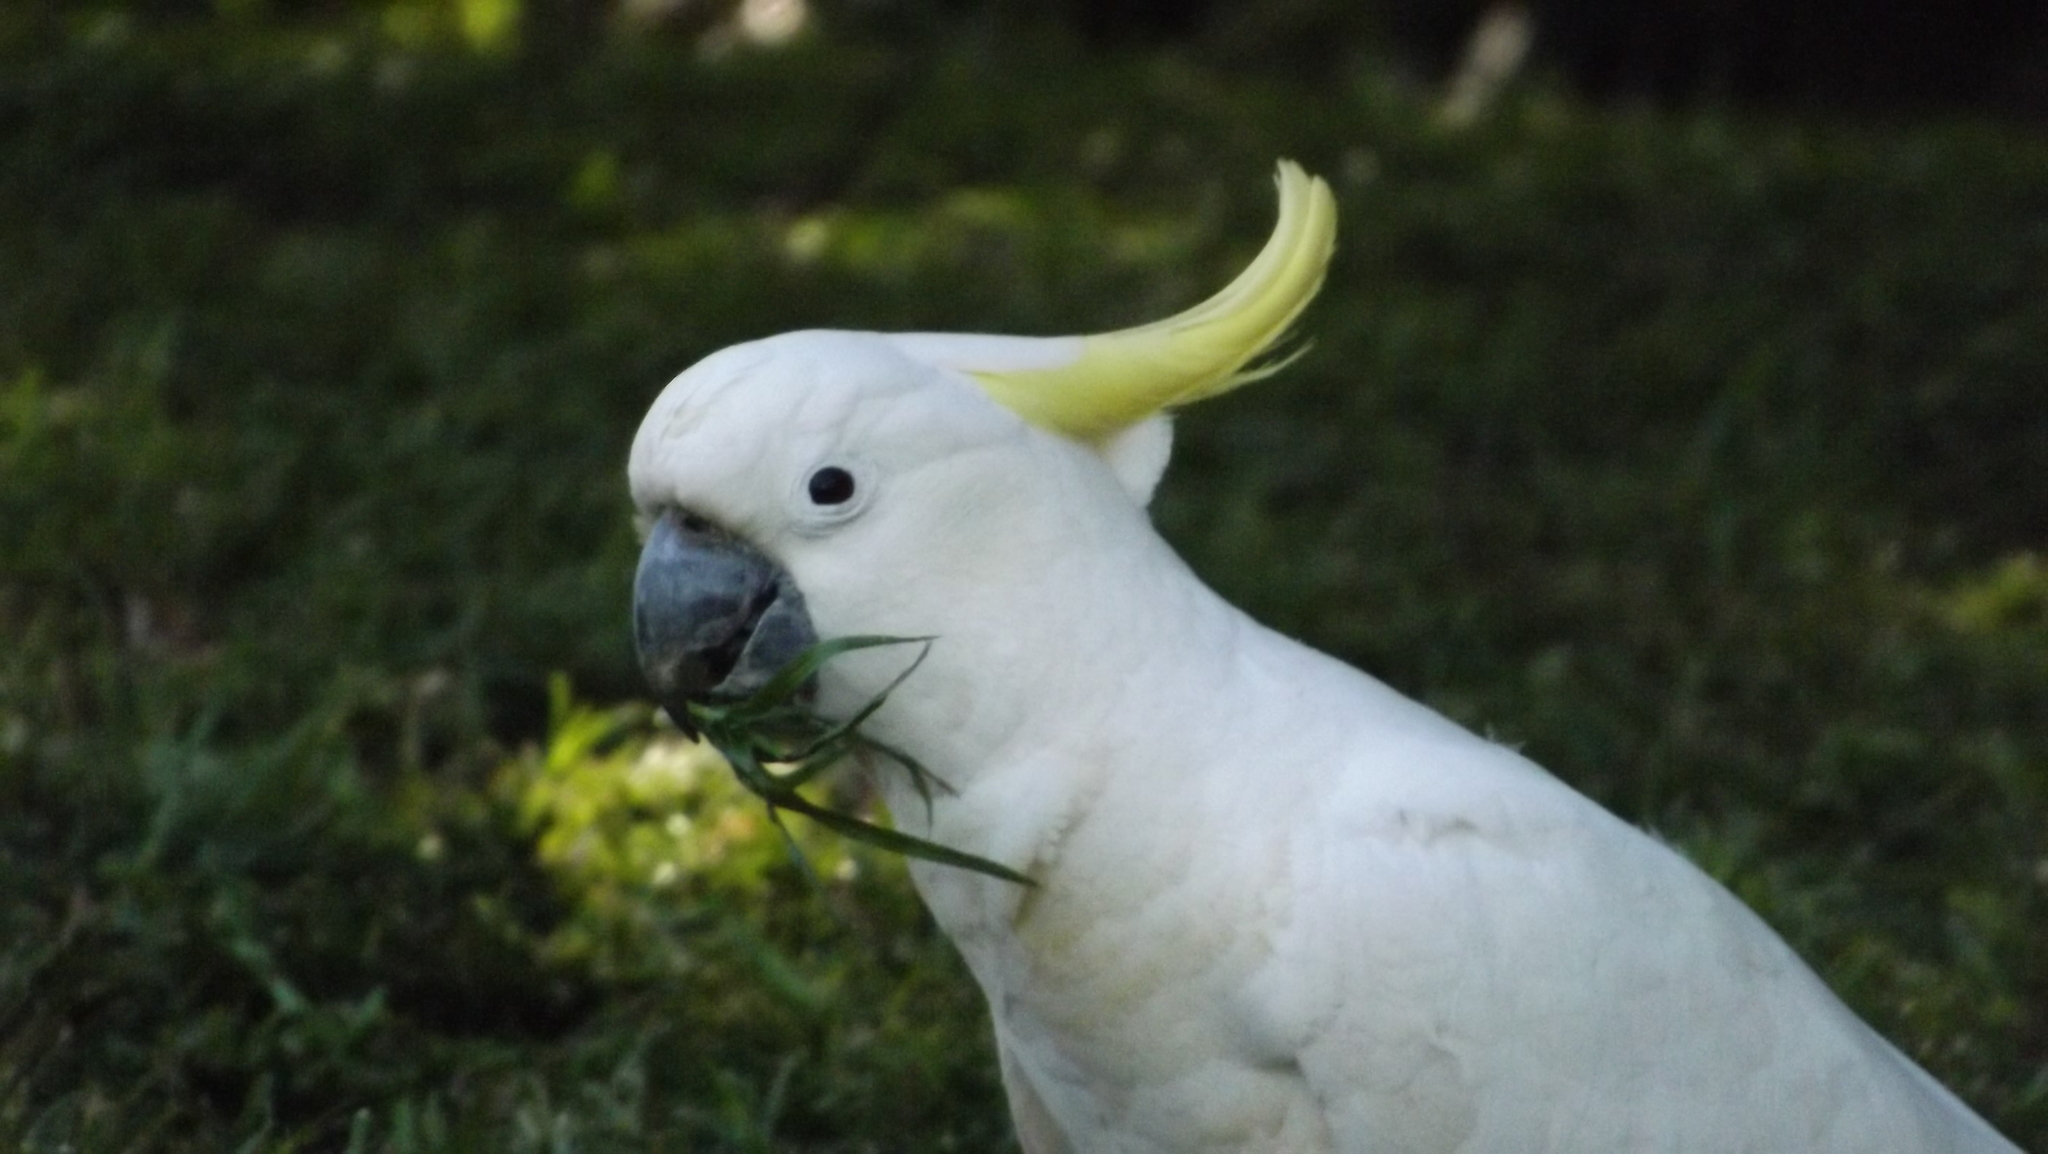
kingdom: Animalia
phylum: Chordata
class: Aves
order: Psittaciformes
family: Psittacidae
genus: Cacatua
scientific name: Cacatua galerita
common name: Sulphur-crested cockatoo
